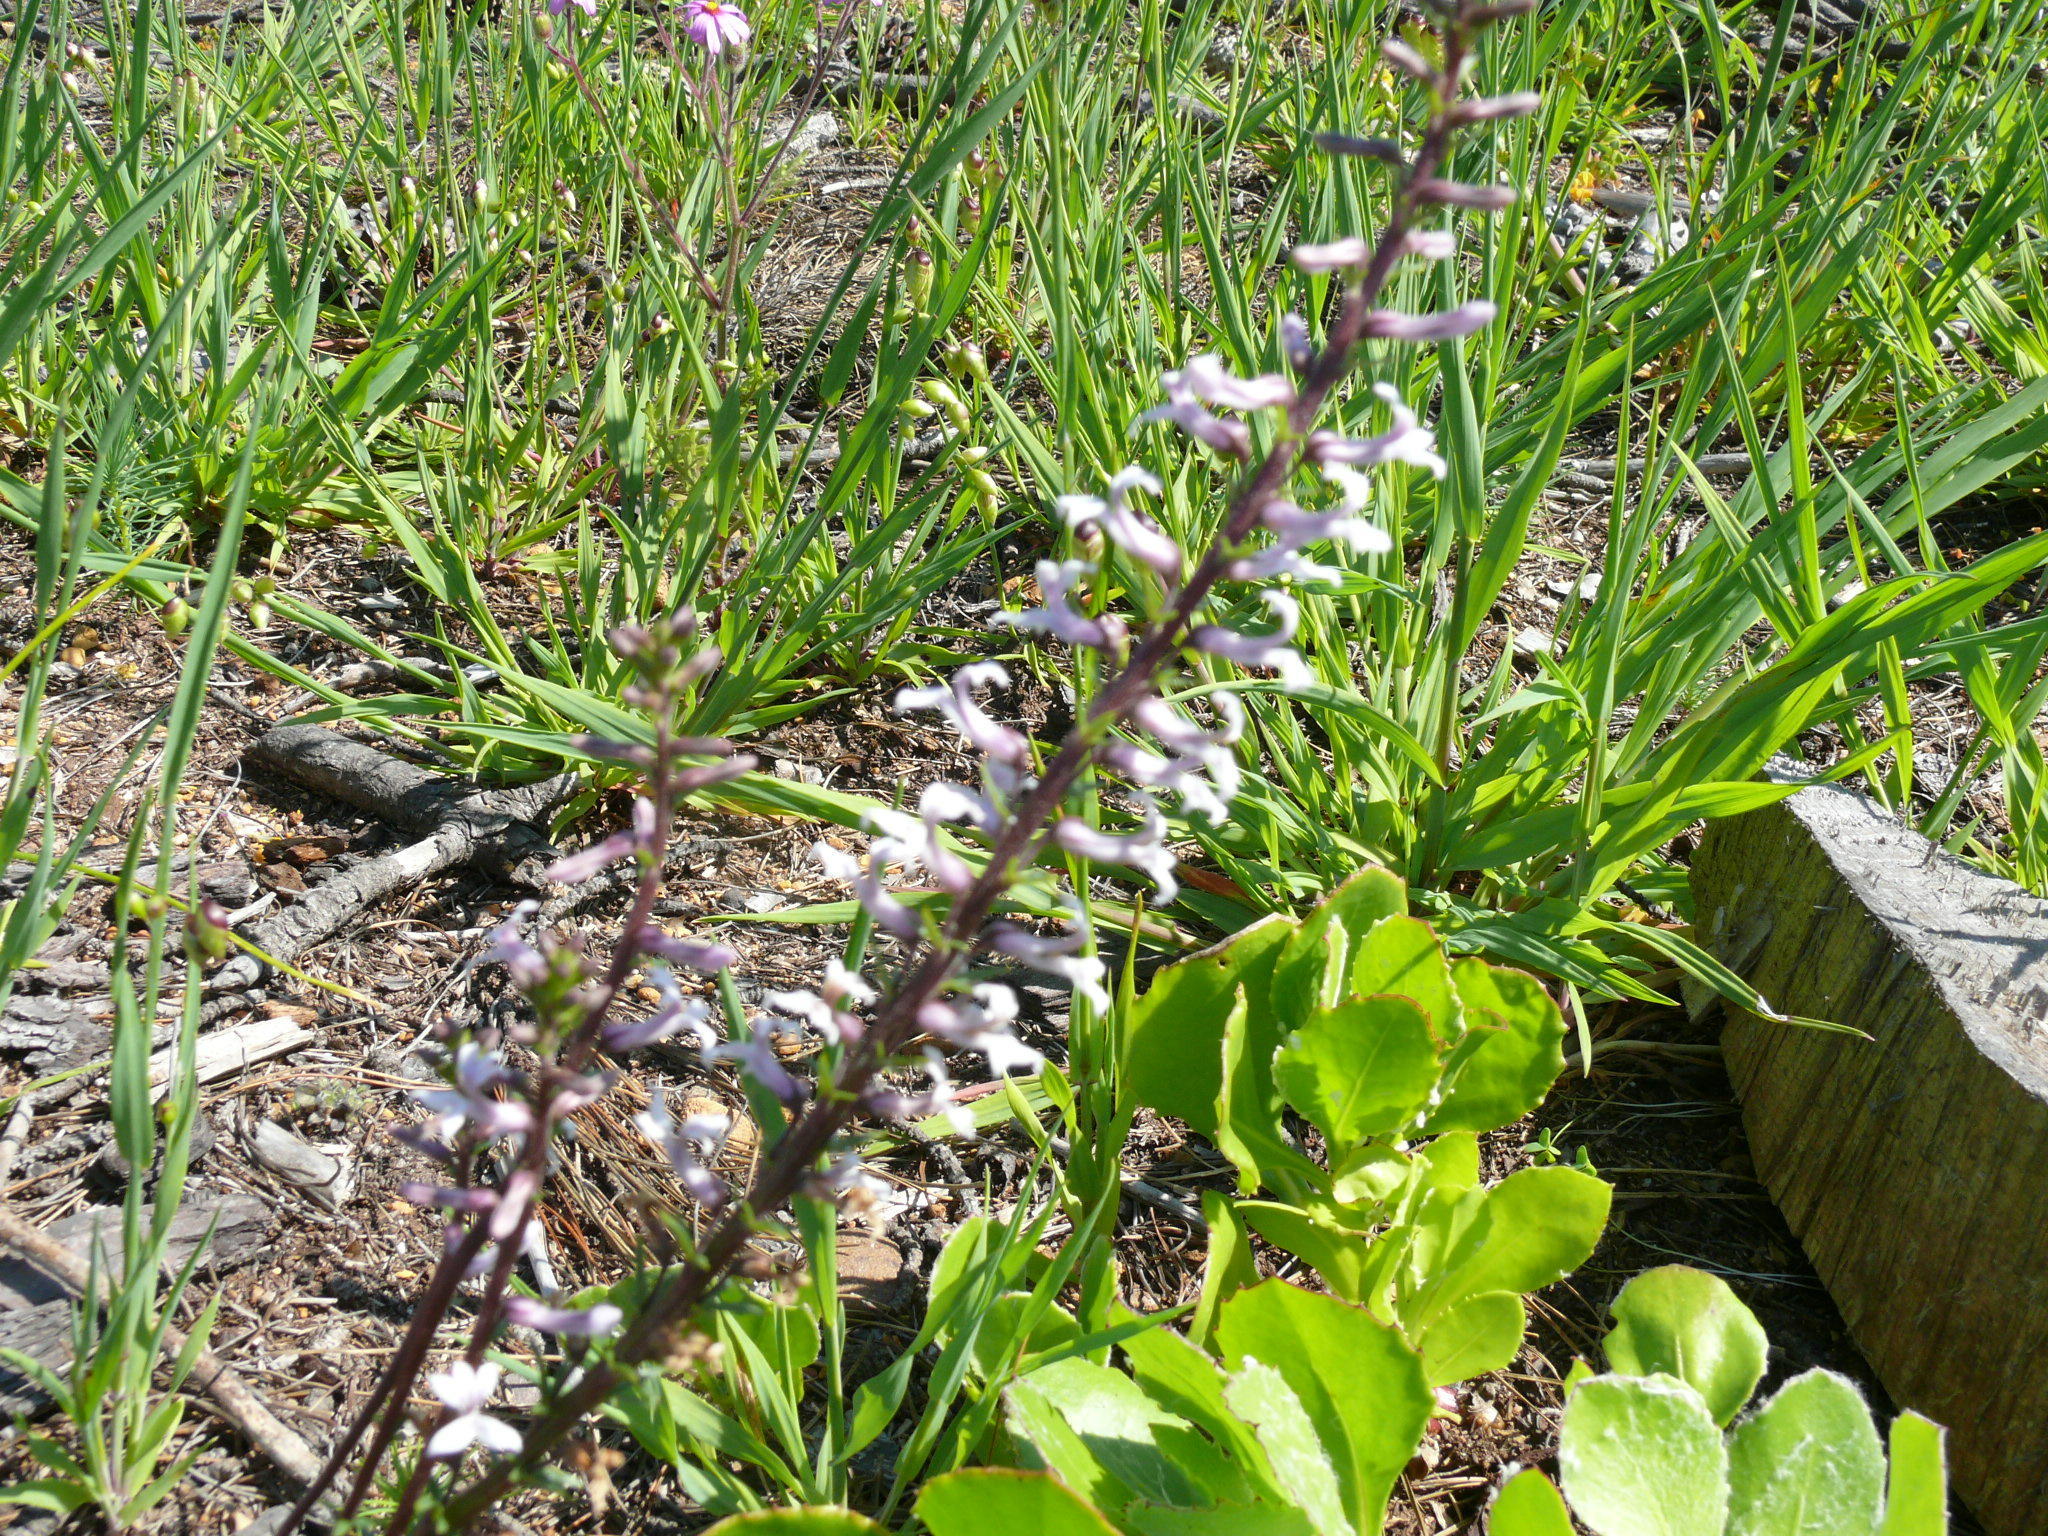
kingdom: Plantae
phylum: Tracheophyta
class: Magnoliopsida
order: Asterales
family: Campanulaceae
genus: Cyphia
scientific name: Cyphia bulbosa
